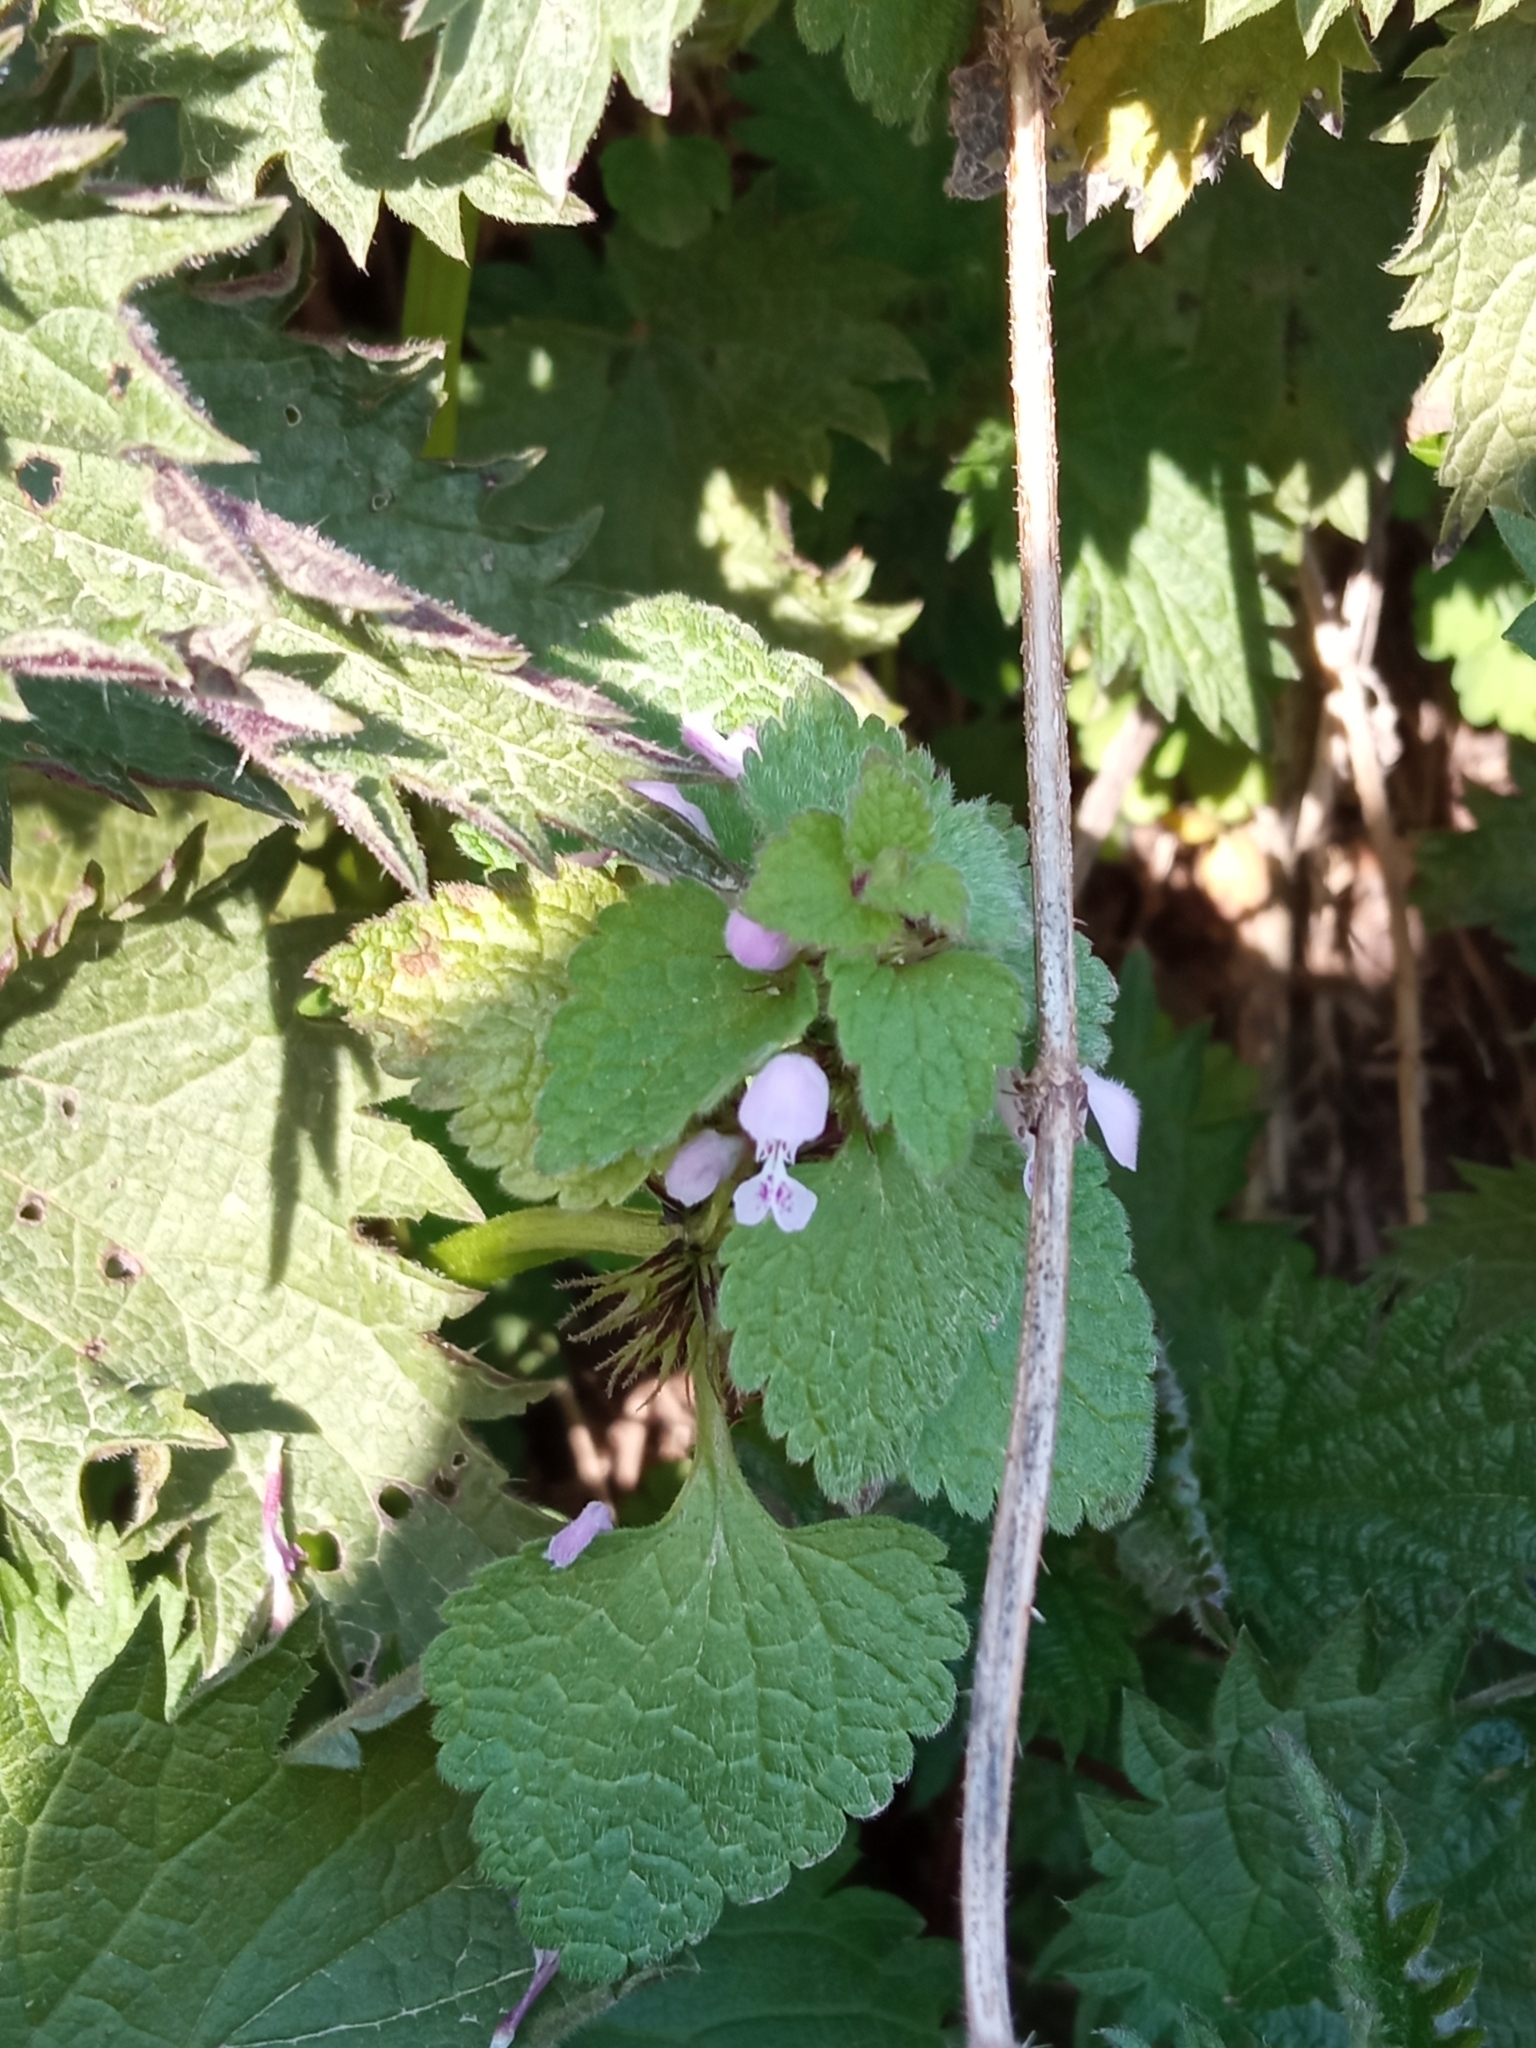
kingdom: Plantae
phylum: Tracheophyta
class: Magnoliopsida
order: Lamiales
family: Lamiaceae
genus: Lamium
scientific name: Lamium purpureum
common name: Red dead-nettle
